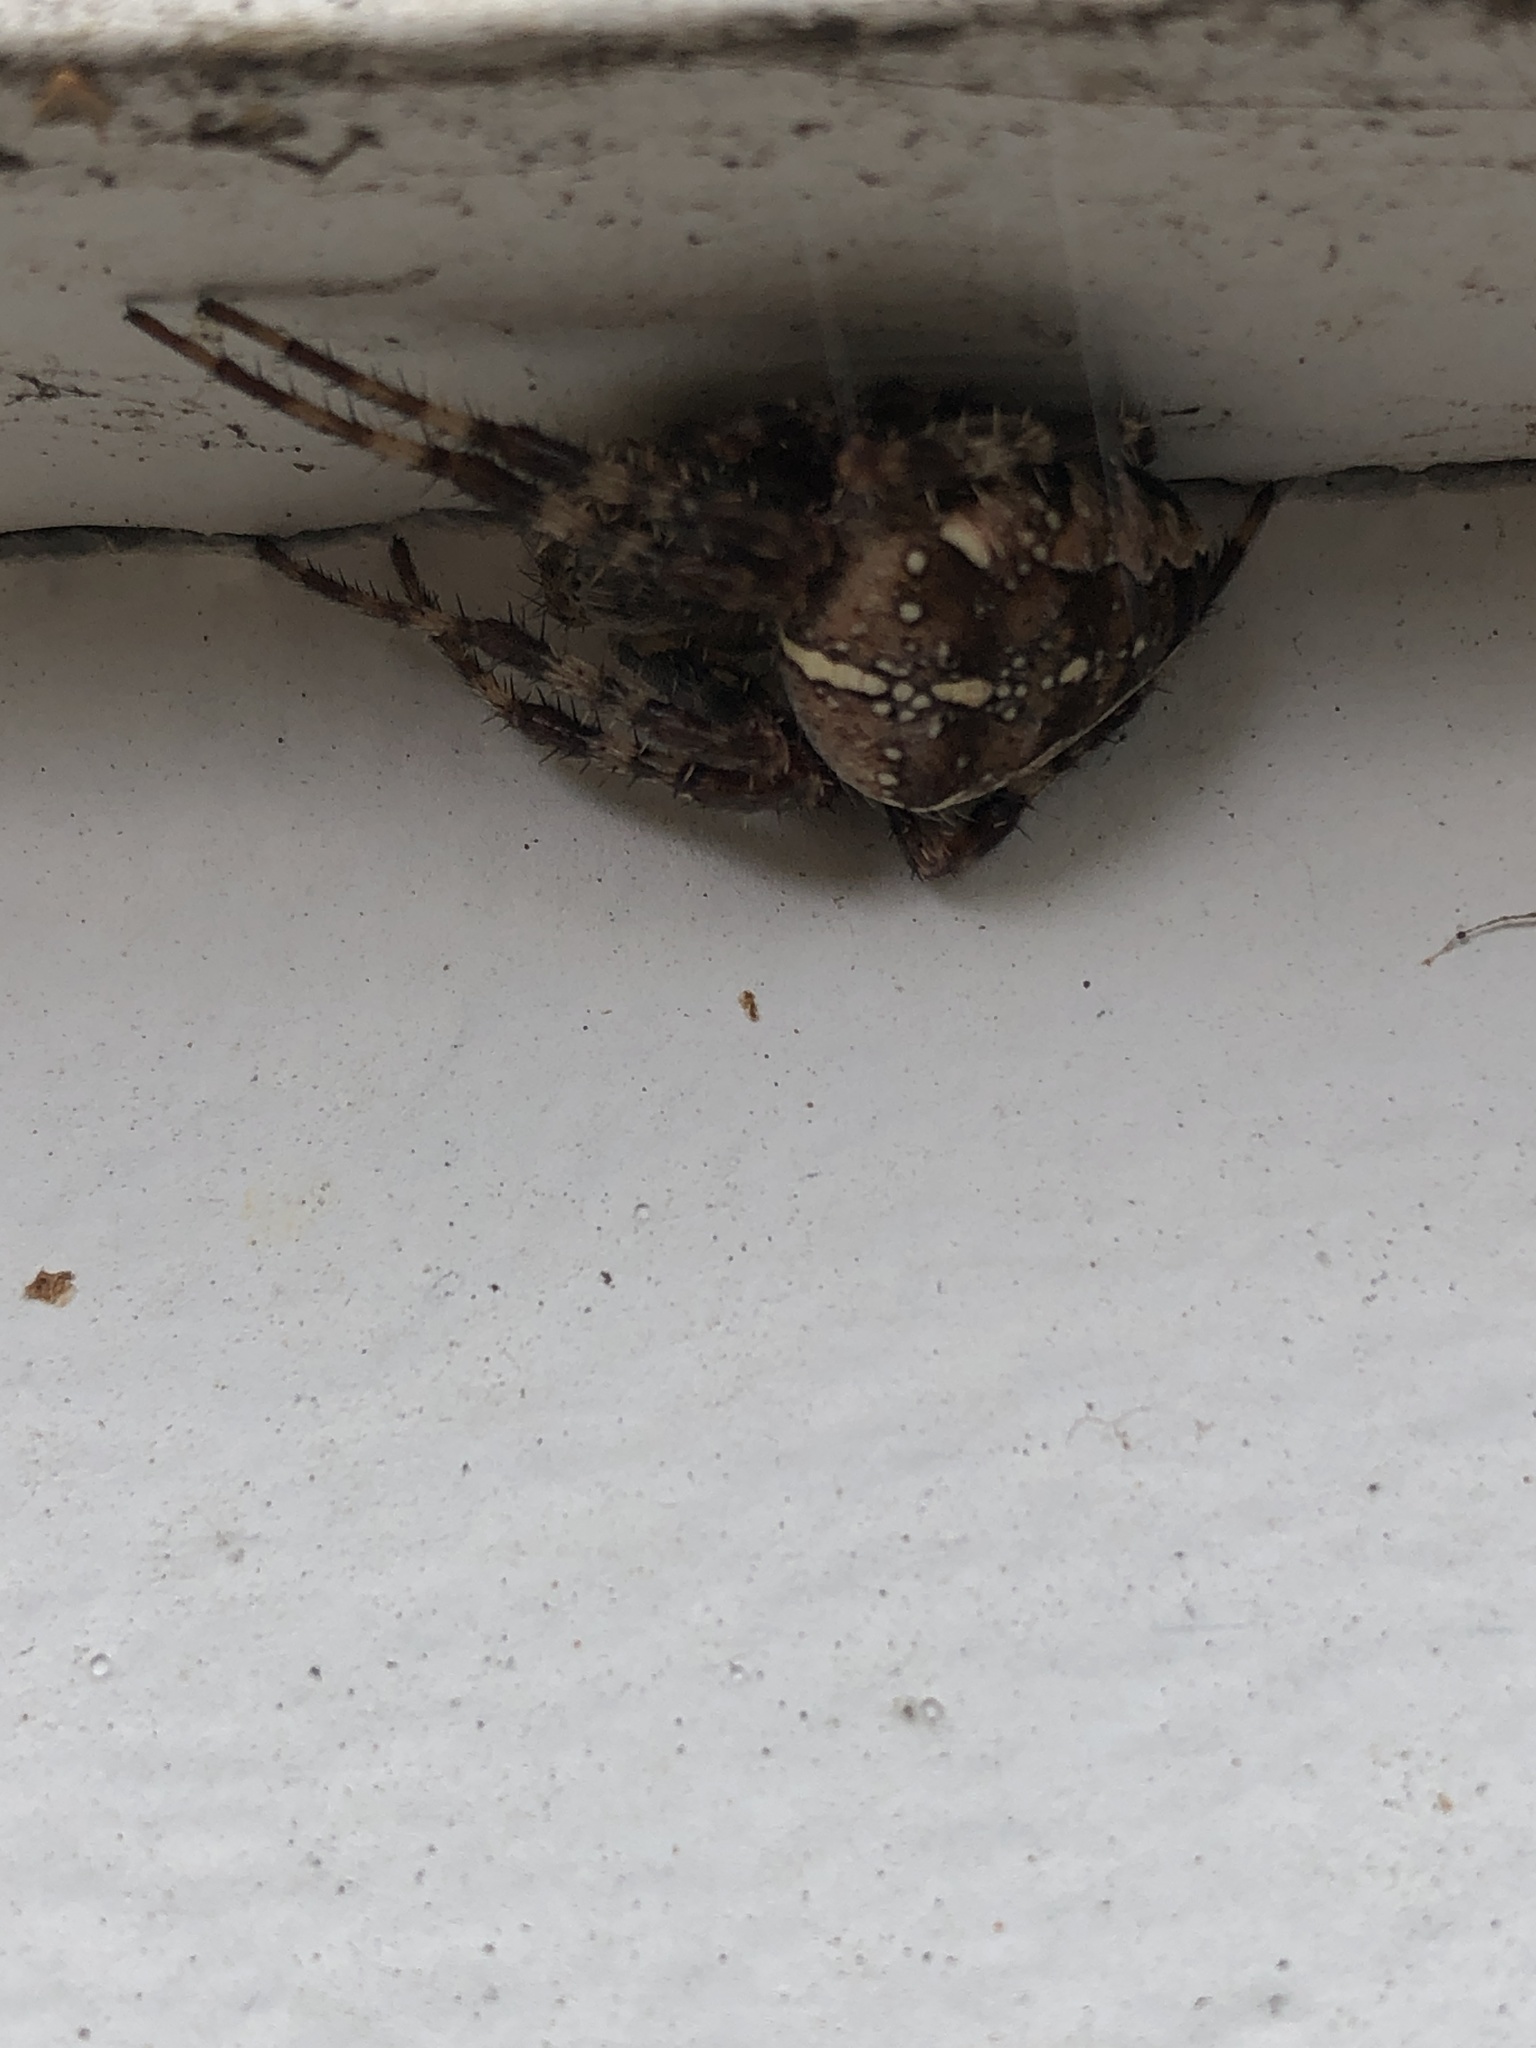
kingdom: Animalia
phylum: Arthropoda
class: Arachnida
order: Araneae
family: Araneidae
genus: Araneus
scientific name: Araneus diadematus
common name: Cross orbweaver
